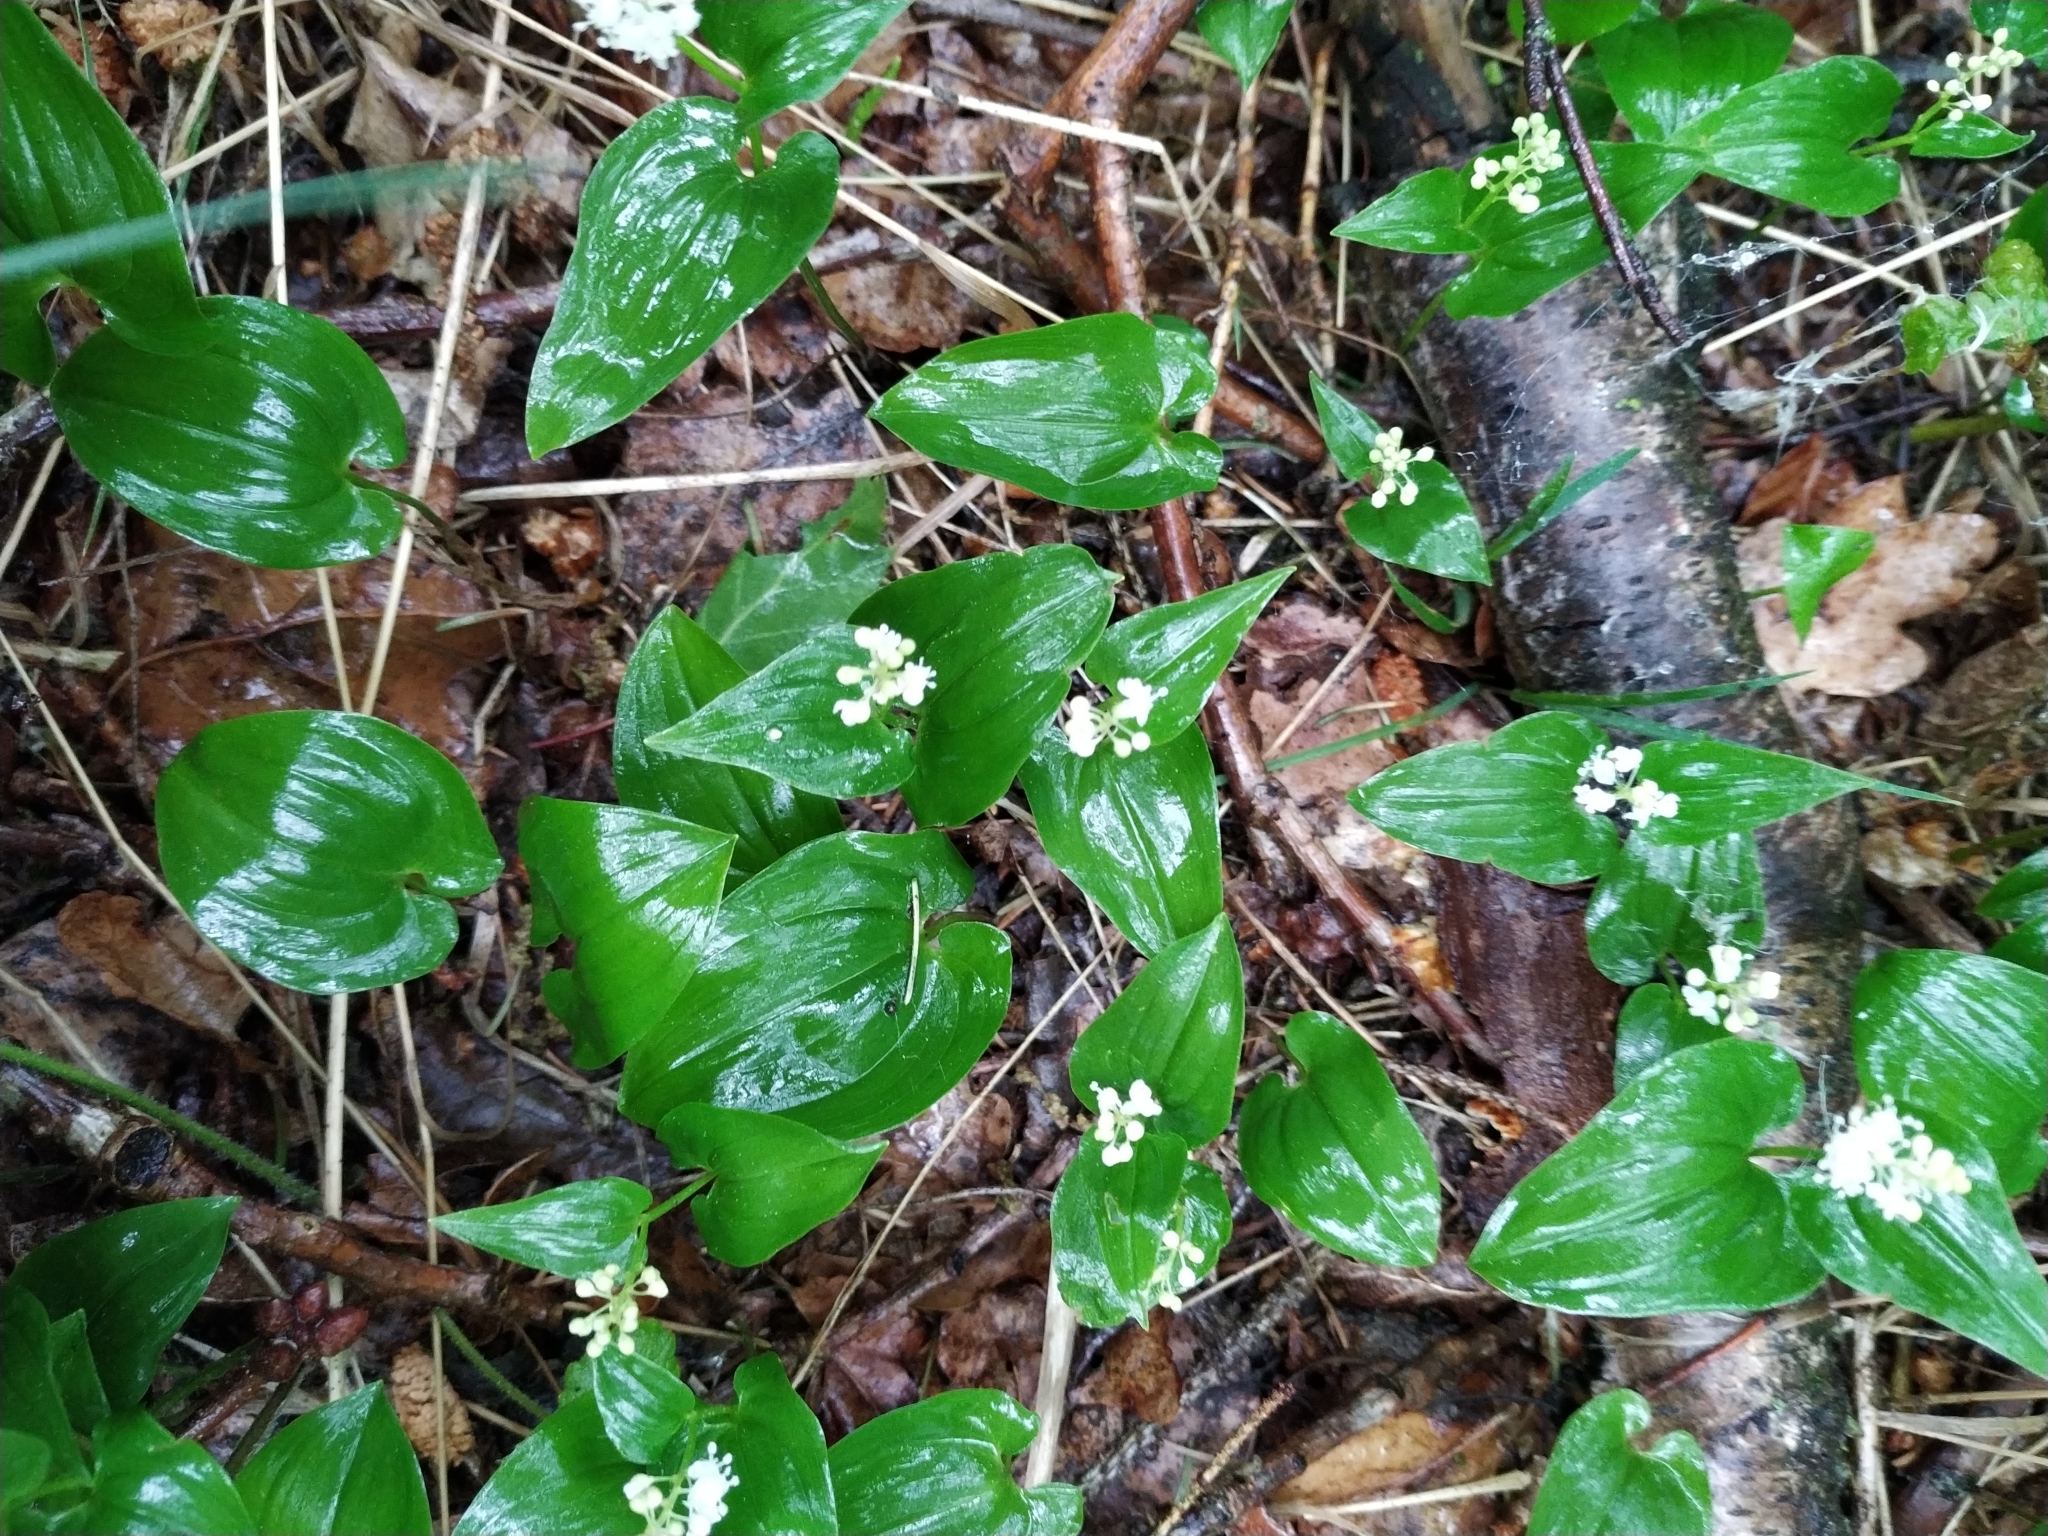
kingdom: Plantae
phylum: Tracheophyta
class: Liliopsida
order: Asparagales
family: Asparagaceae
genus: Maianthemum
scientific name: Maianthemum bifolium
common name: May lily
